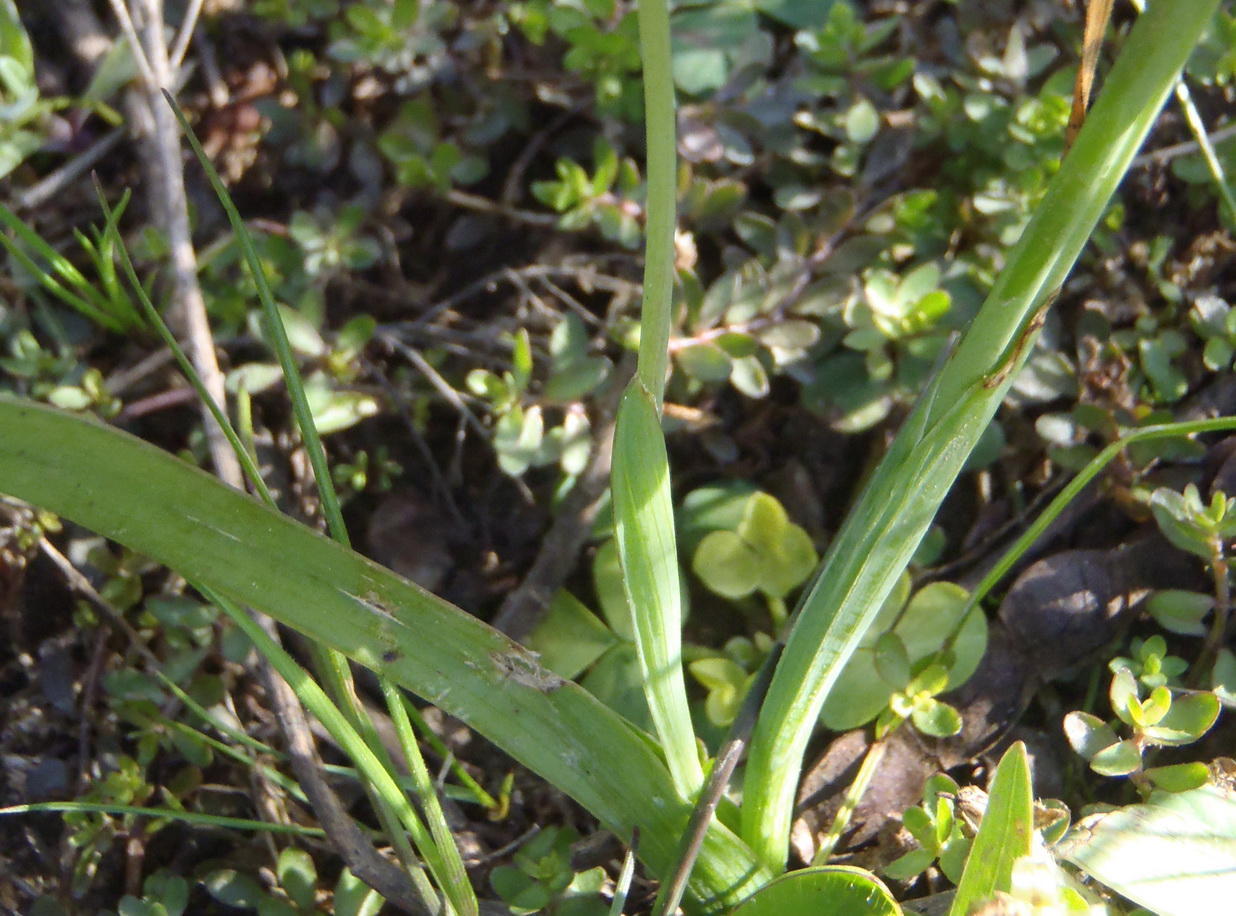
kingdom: Plantae
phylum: Tracheophyta
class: Liliopsida
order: Asparagales
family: Iridaceae
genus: Hesperantha
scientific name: Hesperantha falcata
